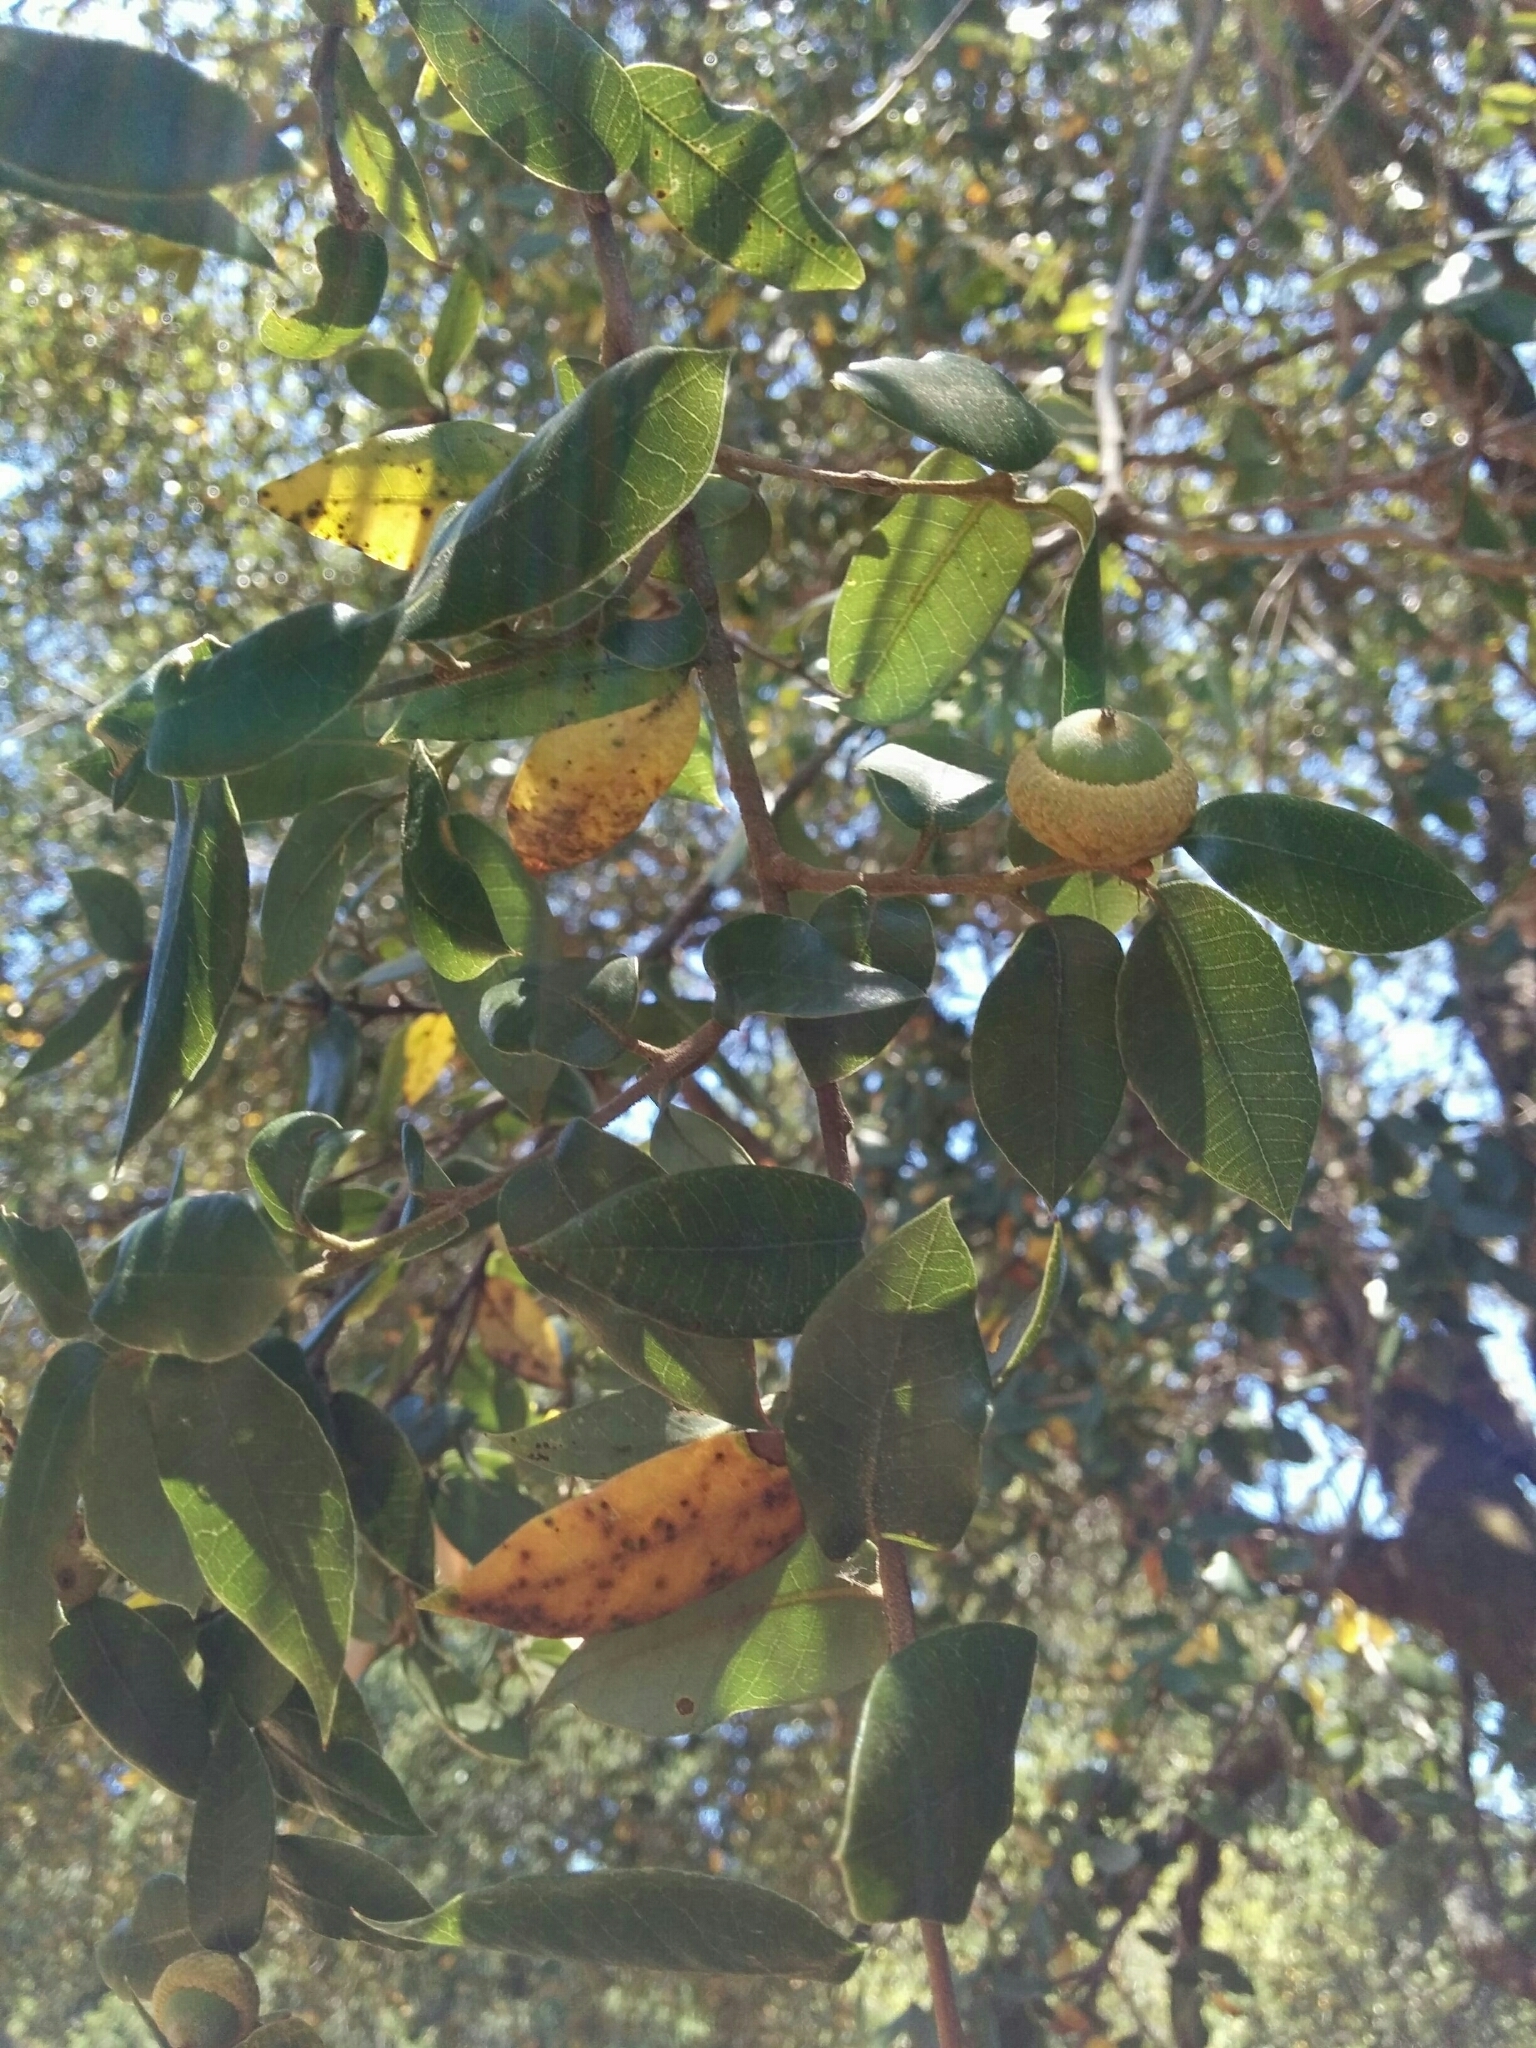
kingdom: Plantae
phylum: Tracheophyta
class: Magnoliopsida
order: Fagales
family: Fagaceae
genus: Quercus
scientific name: Quercus chrysolepis
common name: Canyon live oak
